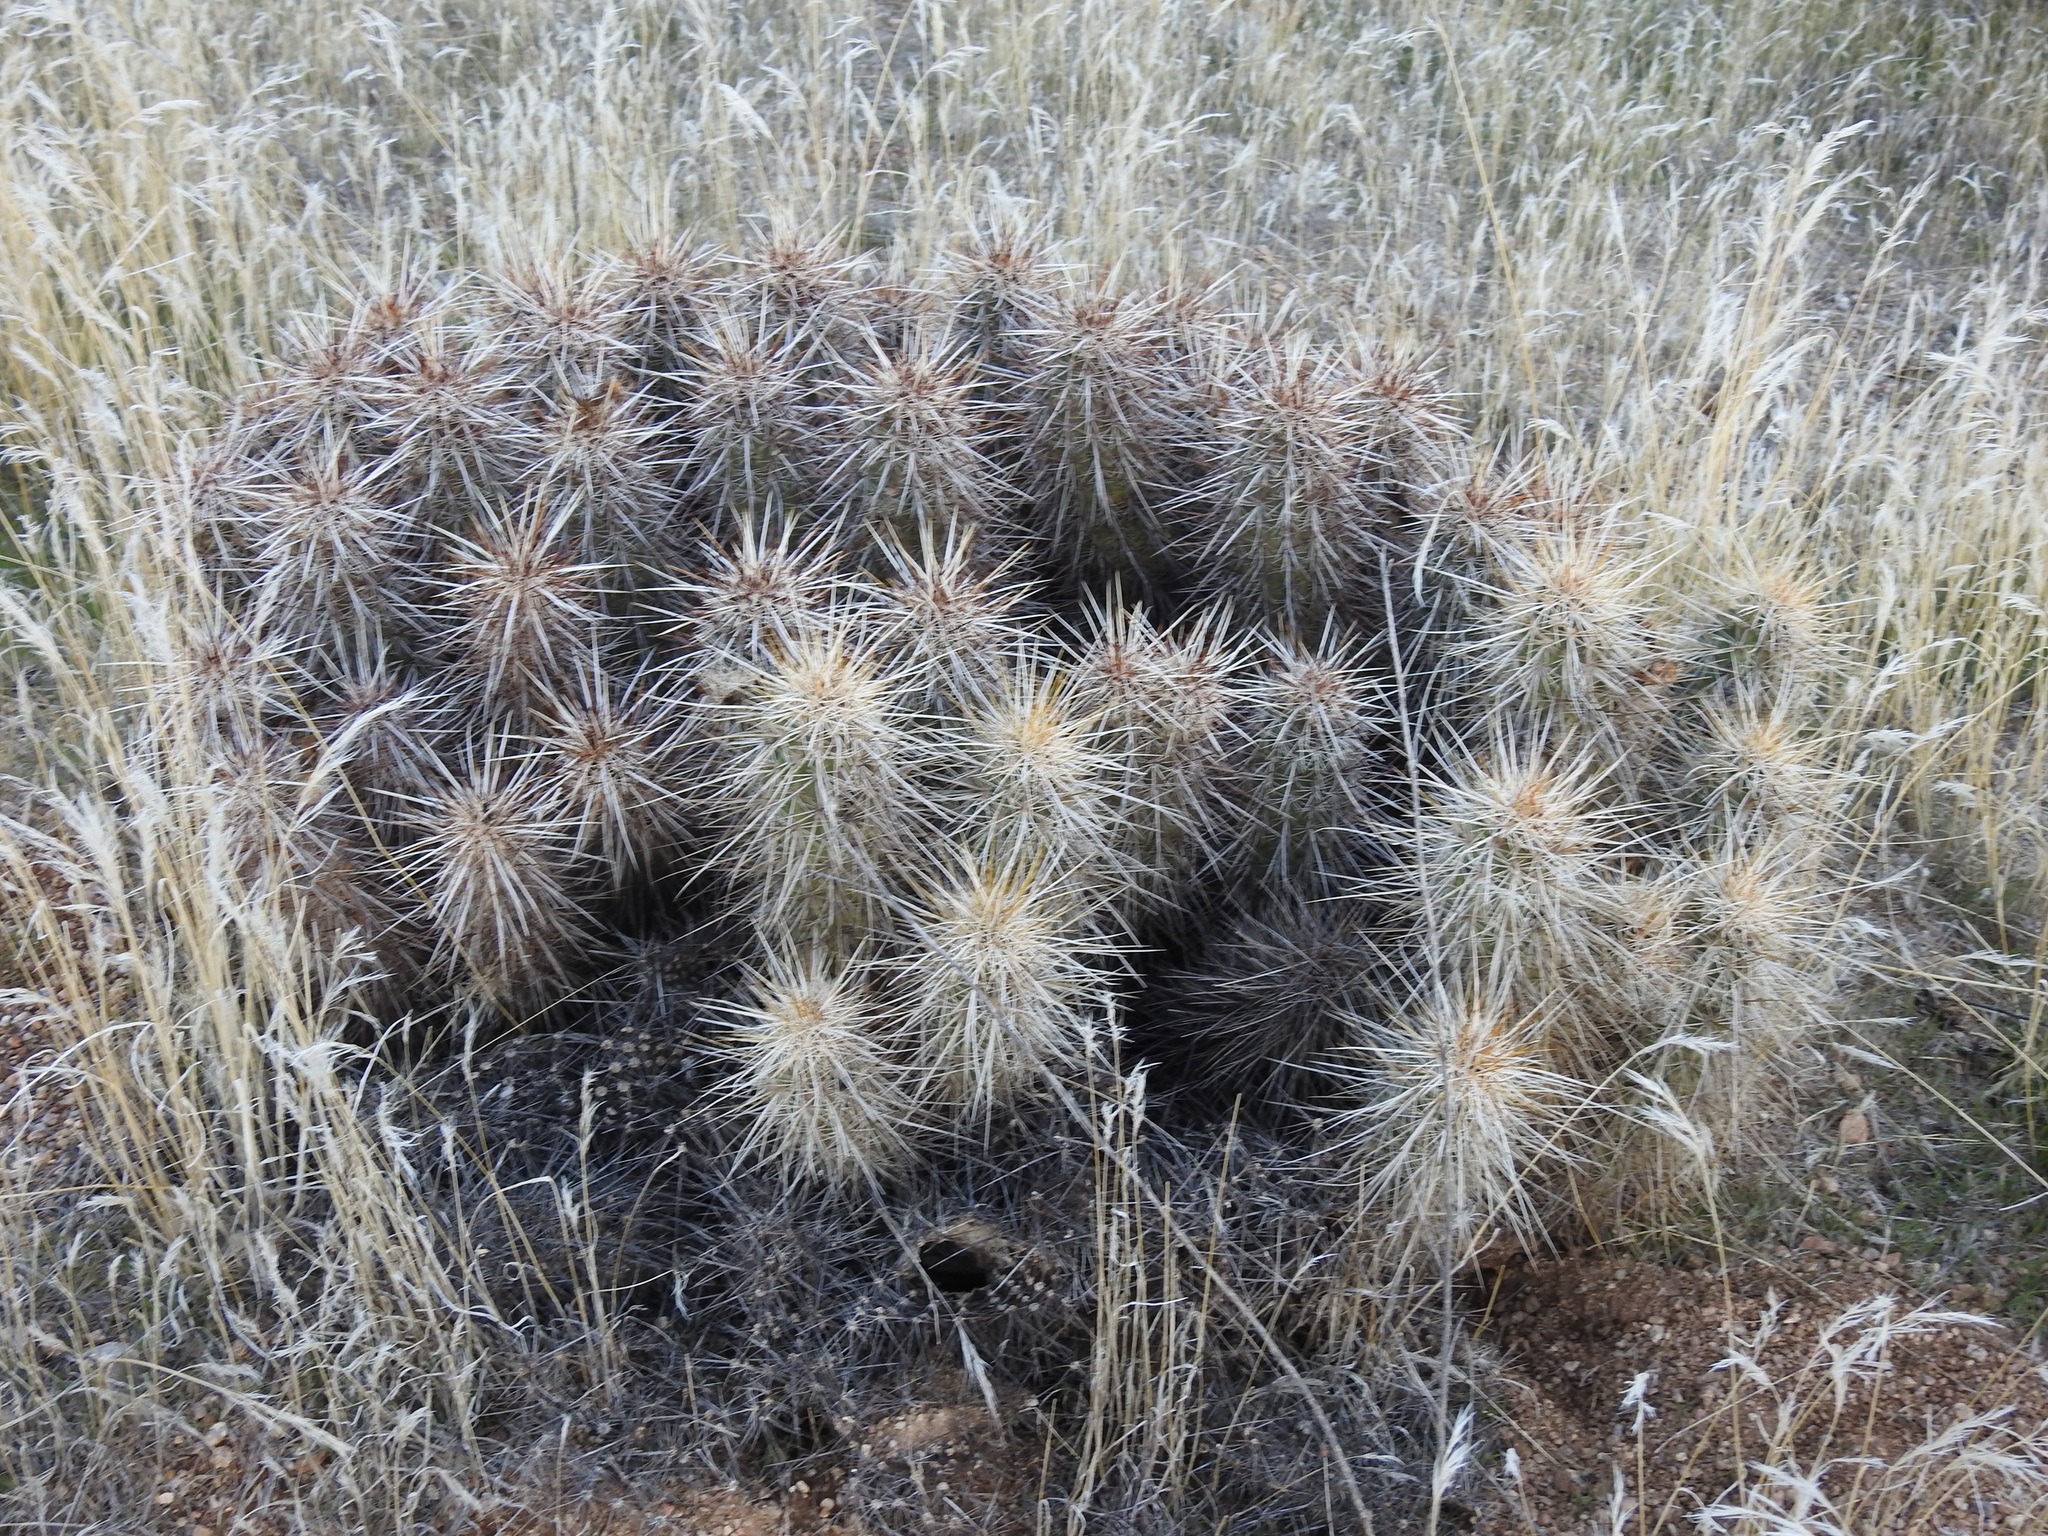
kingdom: Plantae
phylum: Tracheophyta
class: Magnoliopsida
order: Caryophyllales
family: Cactaceae
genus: Echinocereus
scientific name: Echinocereus engelmannii
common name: Engelmann's hedgehog cactus
